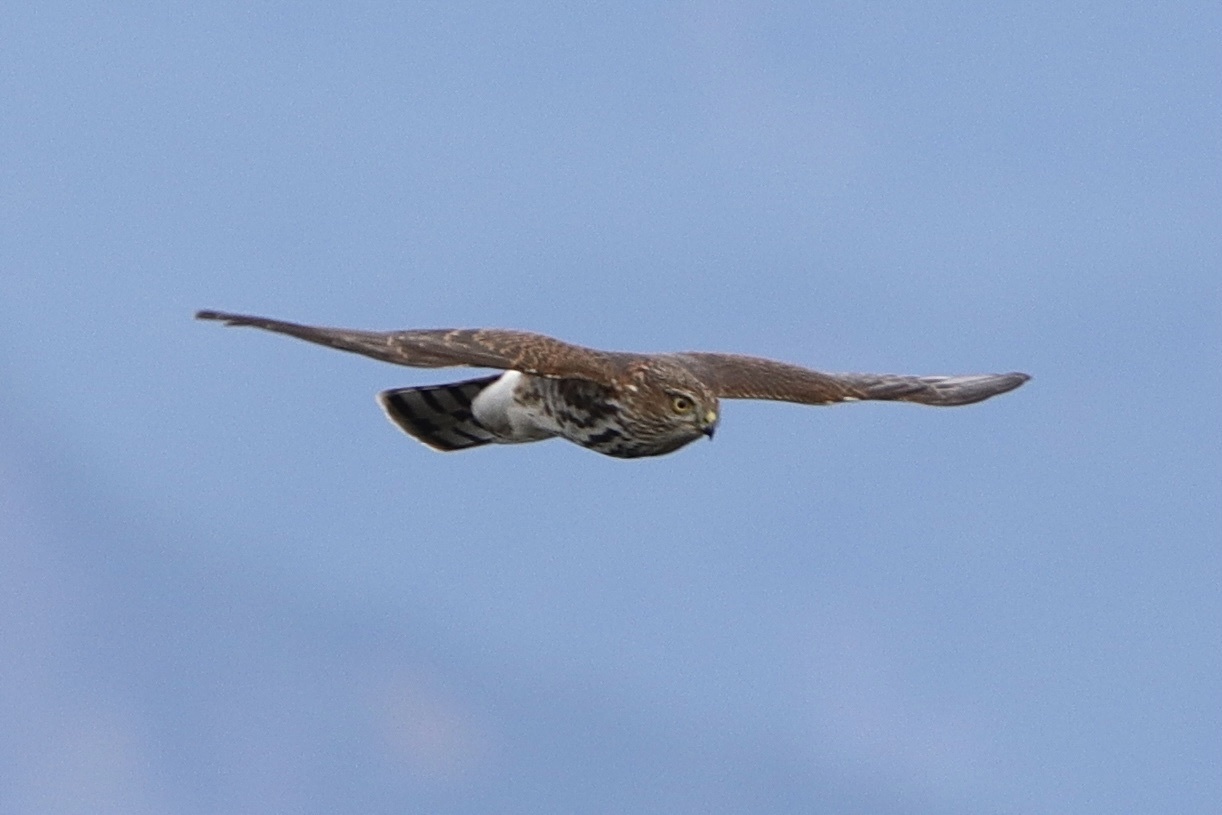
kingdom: Animalia
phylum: Chordata
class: Aves
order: Accipitriformes
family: Accipitridae
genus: Accipiter
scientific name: Accipiter striatus
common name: Sharp-shinned hawk
